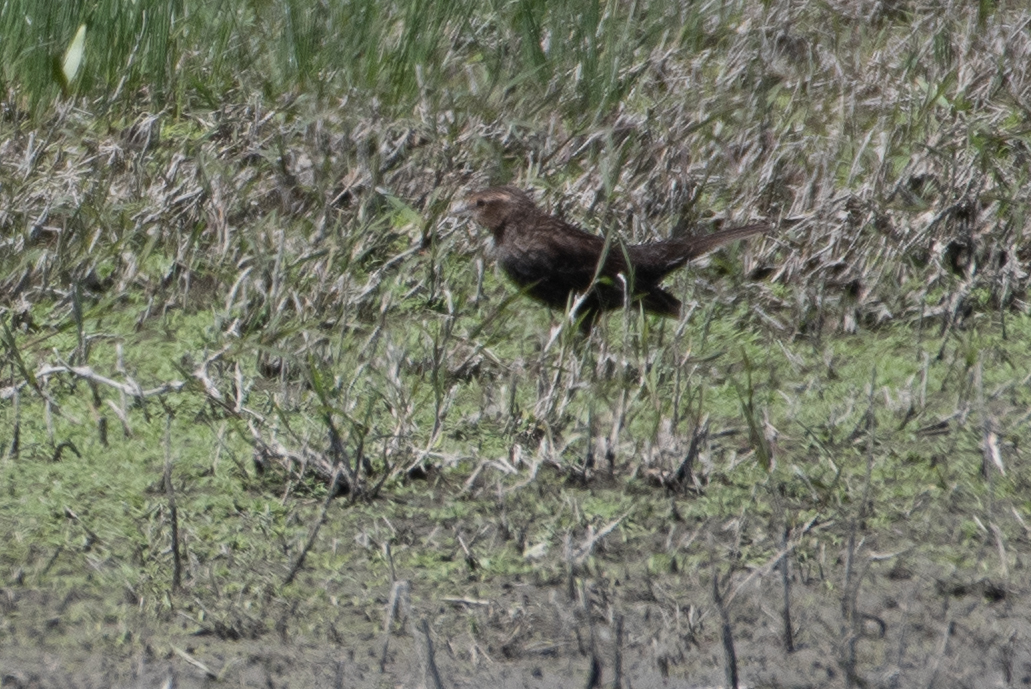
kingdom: Animalia
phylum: Chordata
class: Aves
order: Passeriformes
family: Icteridae
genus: Agelaius
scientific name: Agelaius phoeniceus
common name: Red-winged blackbird
